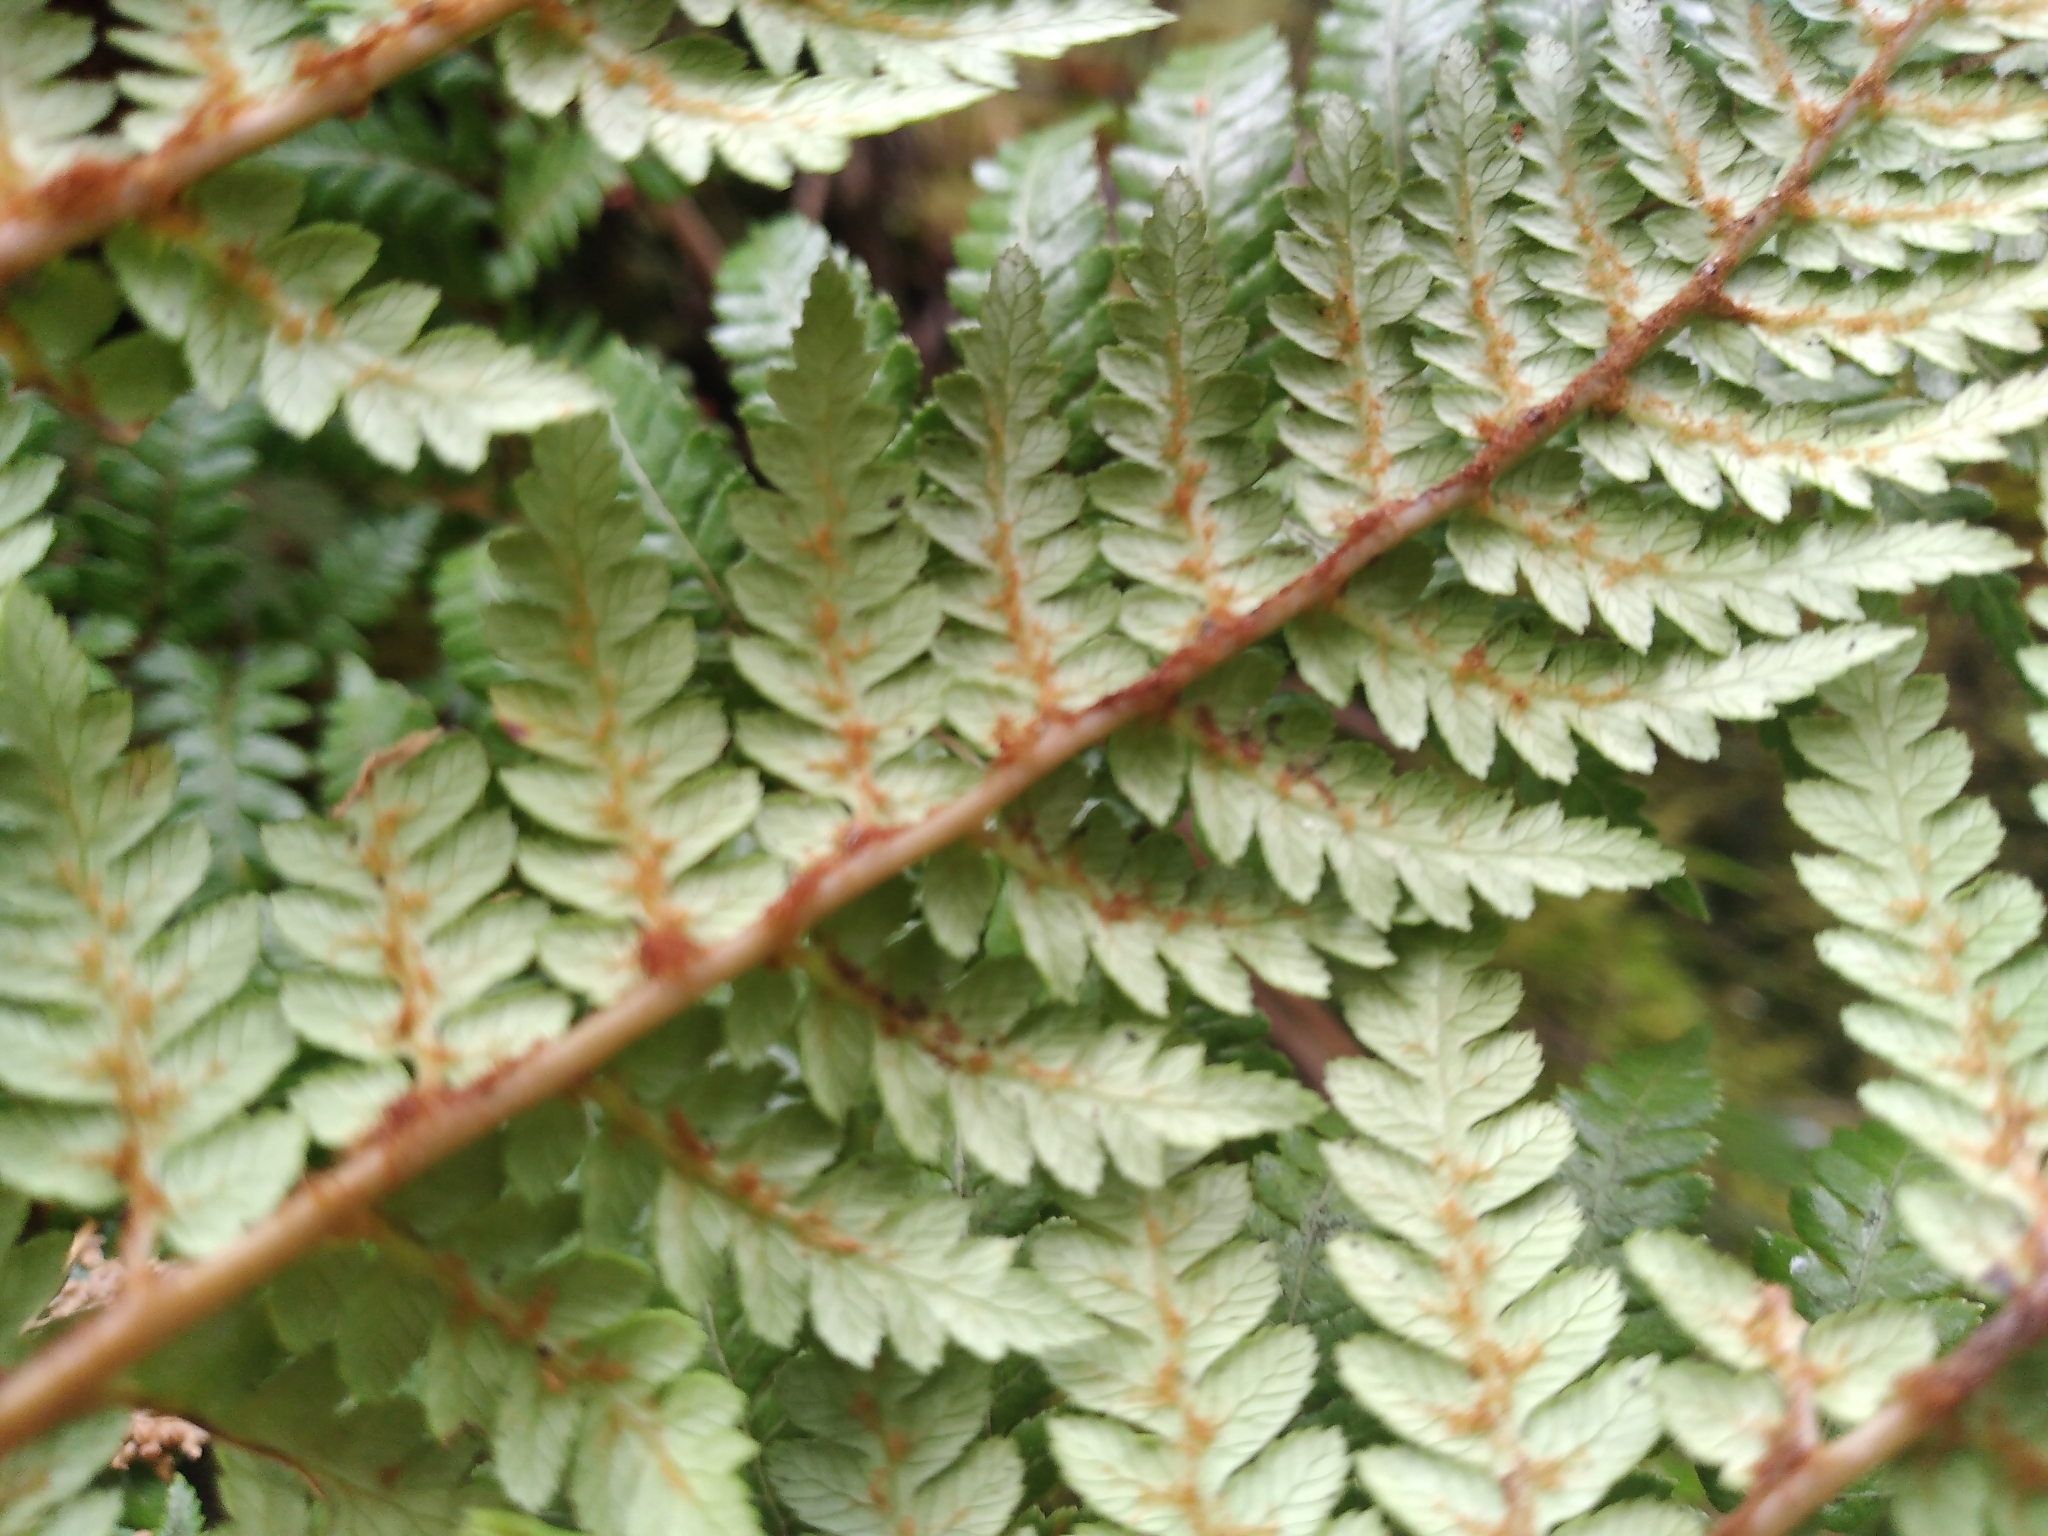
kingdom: Plantae
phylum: Tracheophyta
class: Polypodiopsida
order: Cyatheales
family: Dicksoniaceae
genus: Dicksonia
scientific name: Dicksonia lanata
